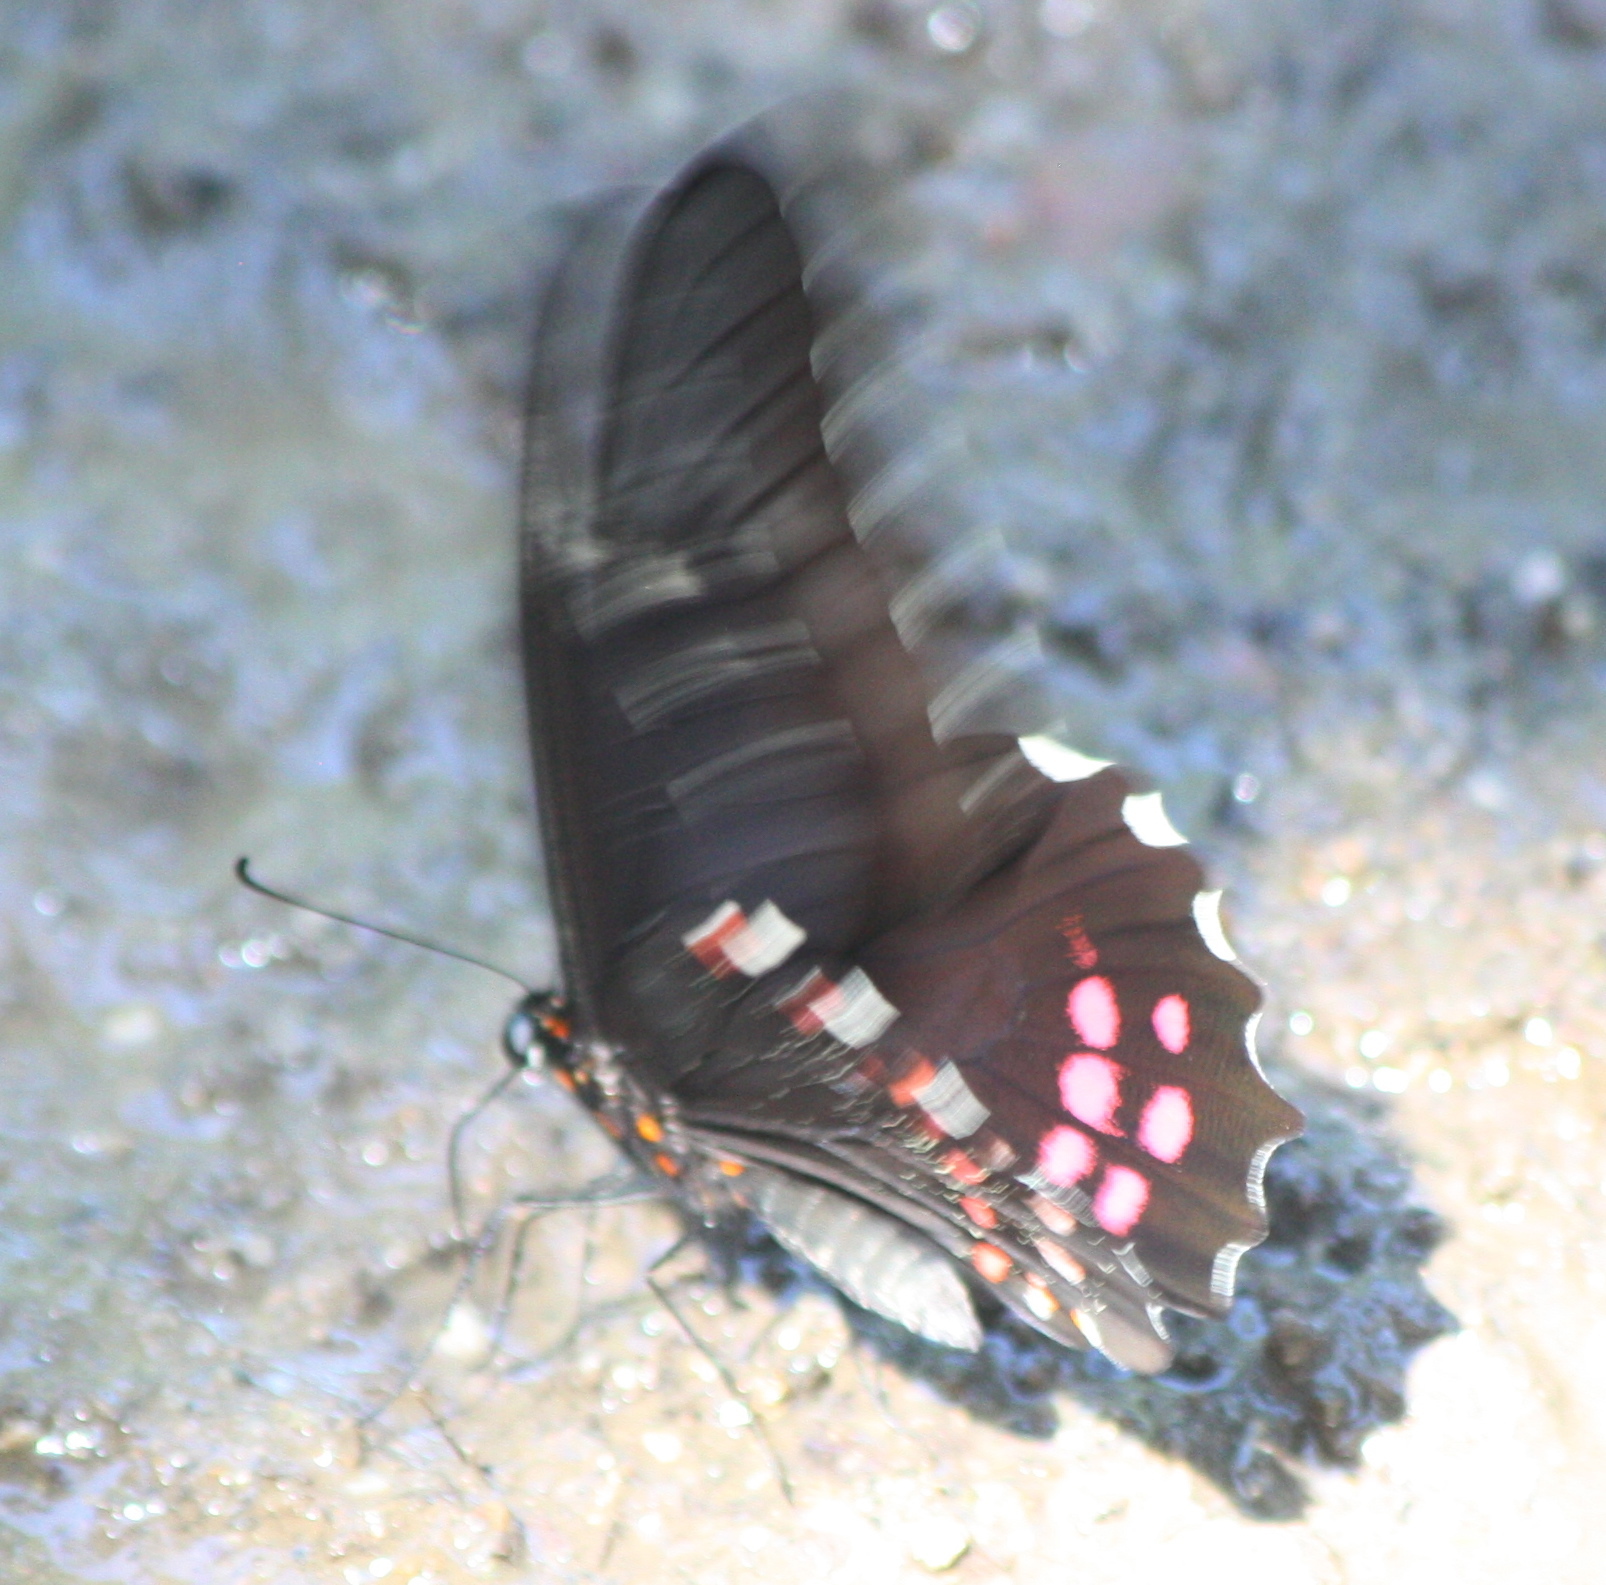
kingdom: Animalia
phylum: Arthropoda
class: Insecta
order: Lepidoptera
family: Papilionidae
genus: Heraclides
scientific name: Heraclides rogeri
